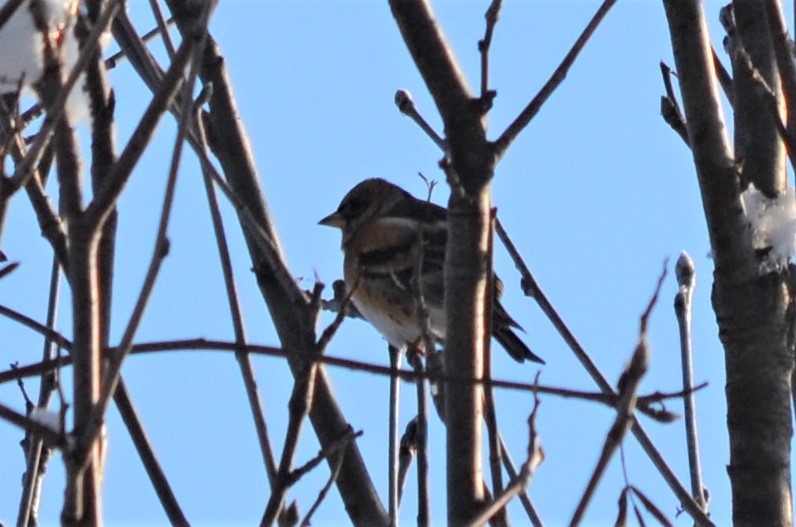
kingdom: Animalia
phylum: Chordata
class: Aves
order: Passeriformes
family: Fringillidae
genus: Fringilla
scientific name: Fringilla montifringilla
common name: Brambling
